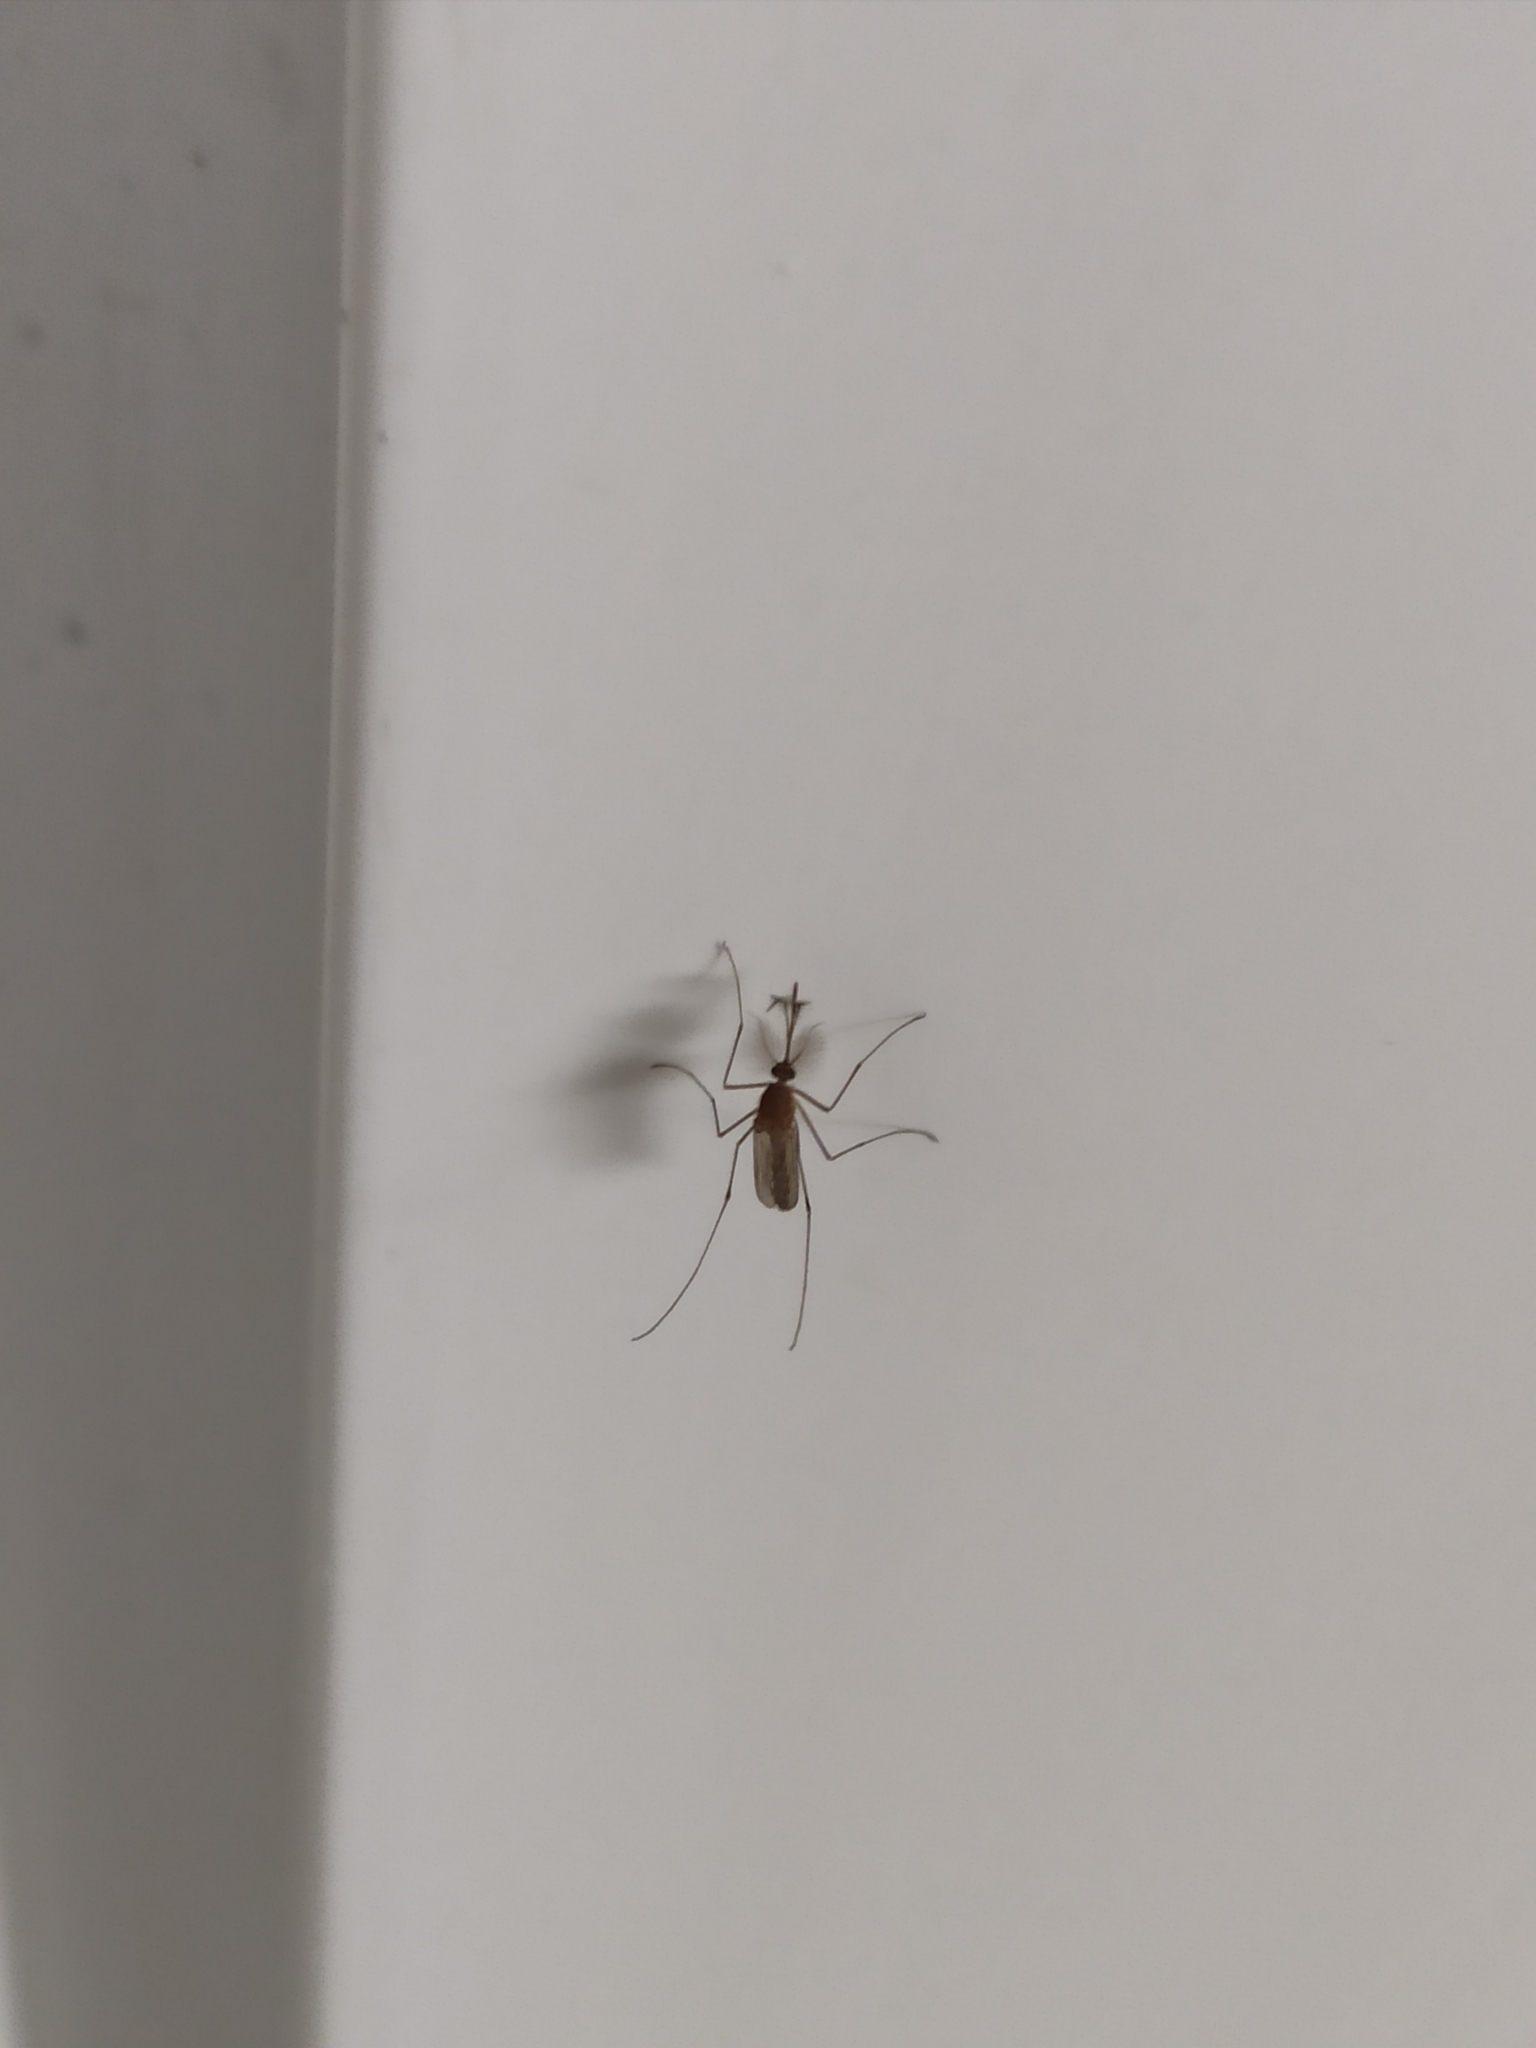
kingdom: Animalia
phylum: Arthropoda
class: Insecta
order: Diptera
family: Culicidae
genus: Culex
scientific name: Culex
